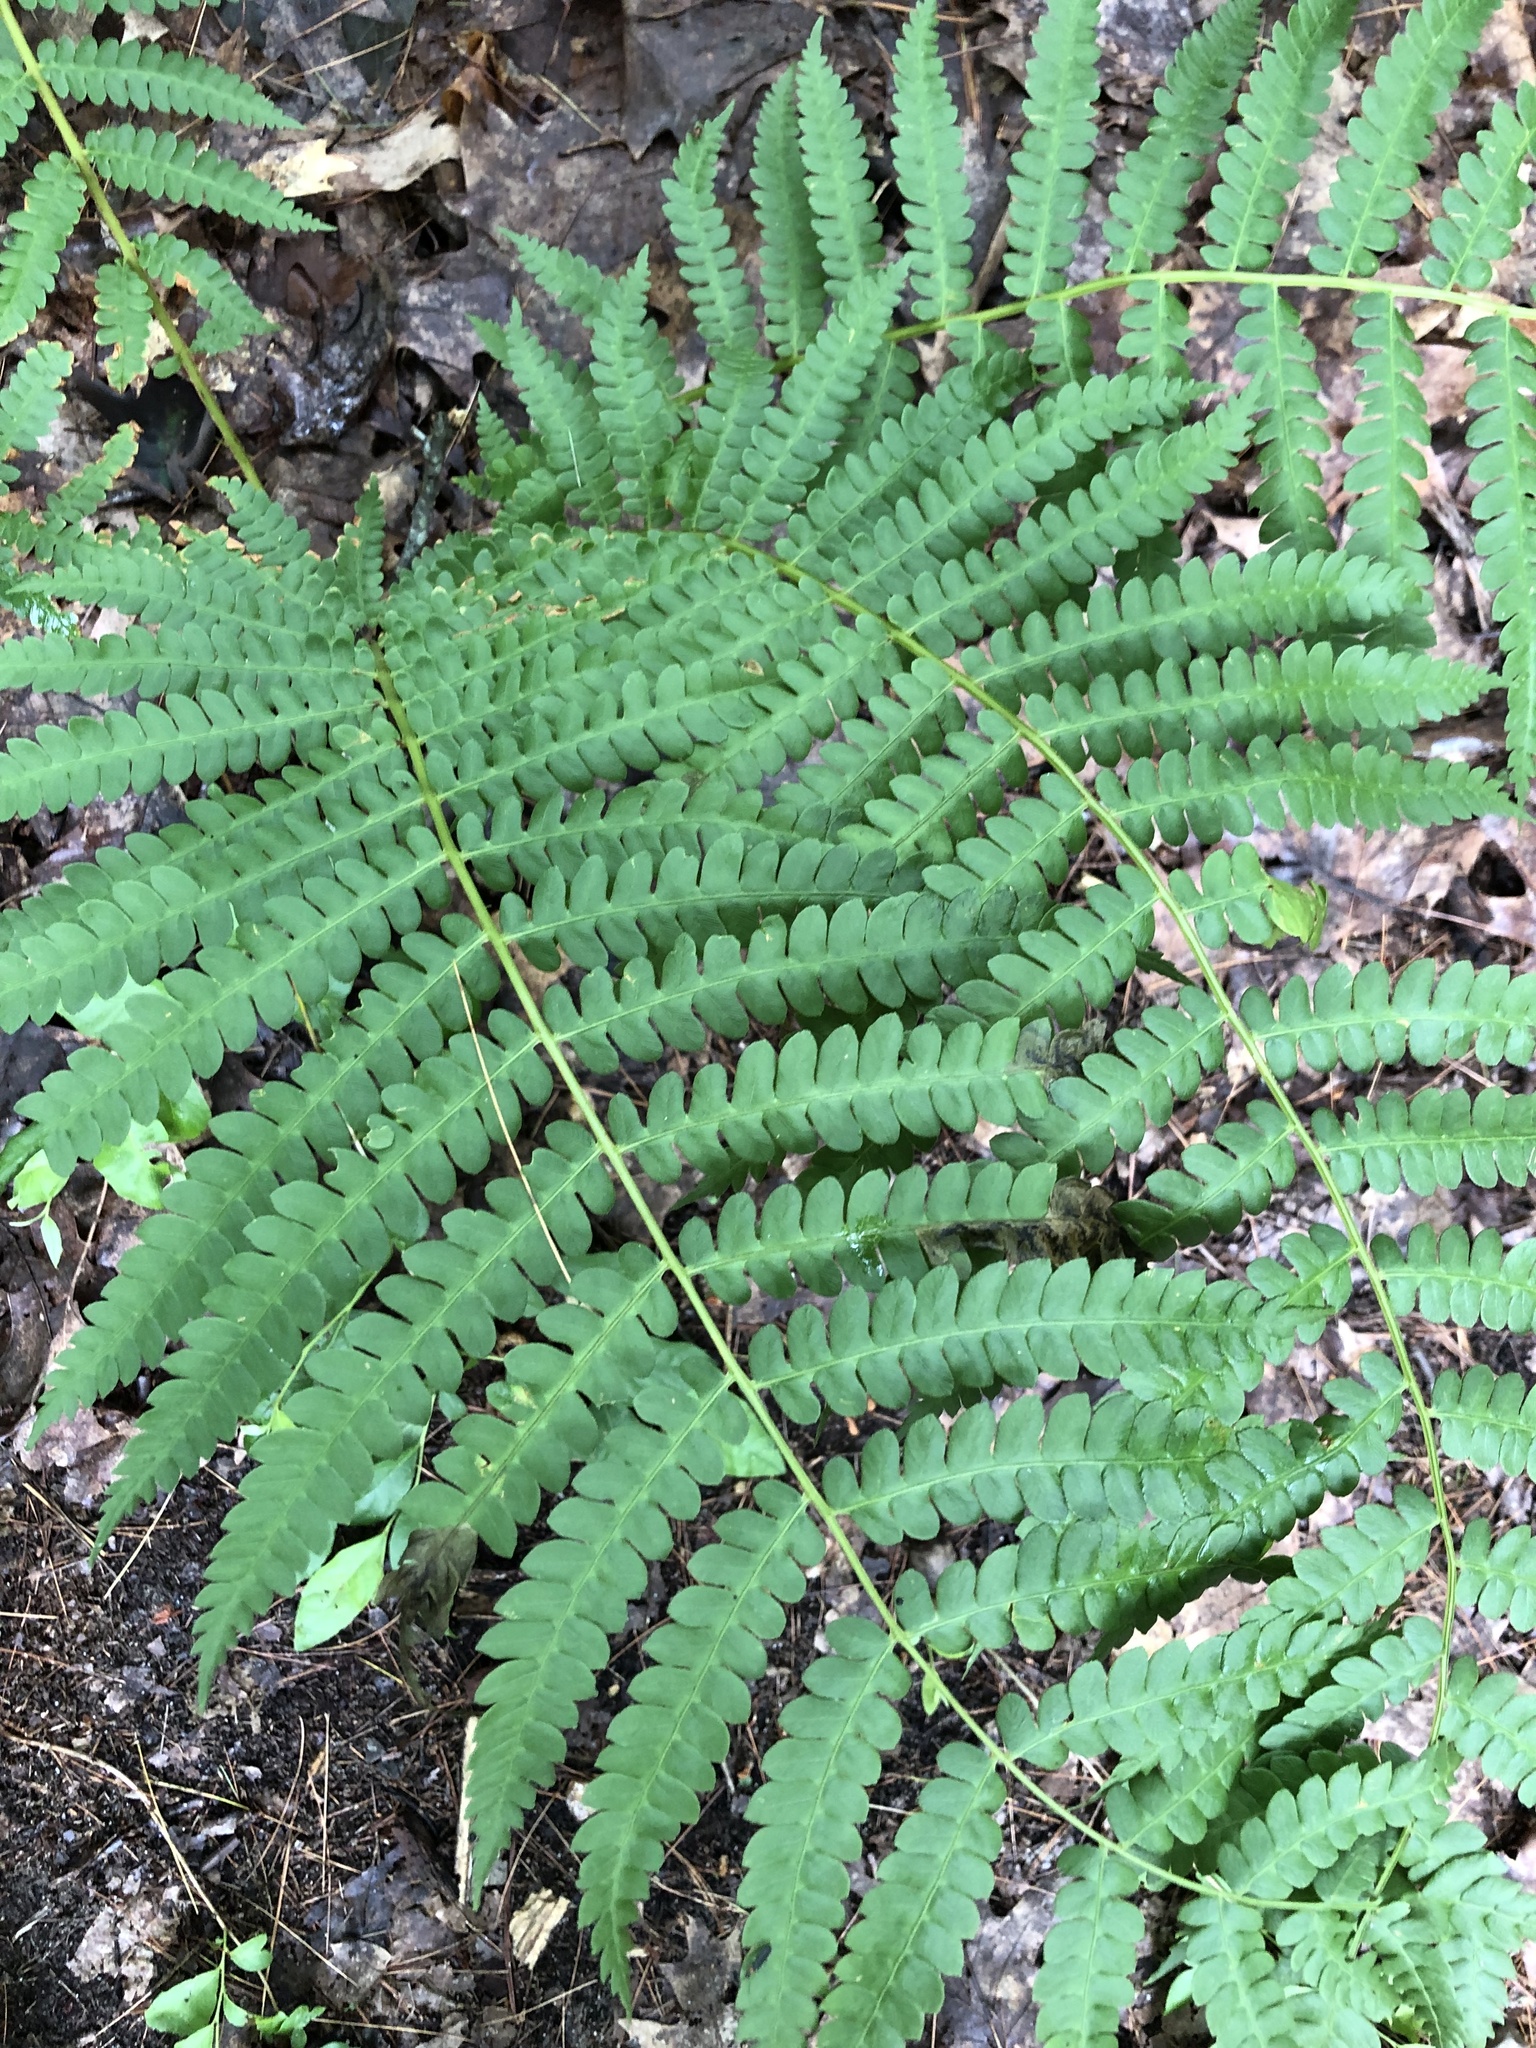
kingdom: Plantae
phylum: Tracheophyta
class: Polypodiopsida
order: Osmundales
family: Osmundaceae
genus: Osmundastrum
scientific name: Osmundastrum cinnamomeum
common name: Cinnamon fern
